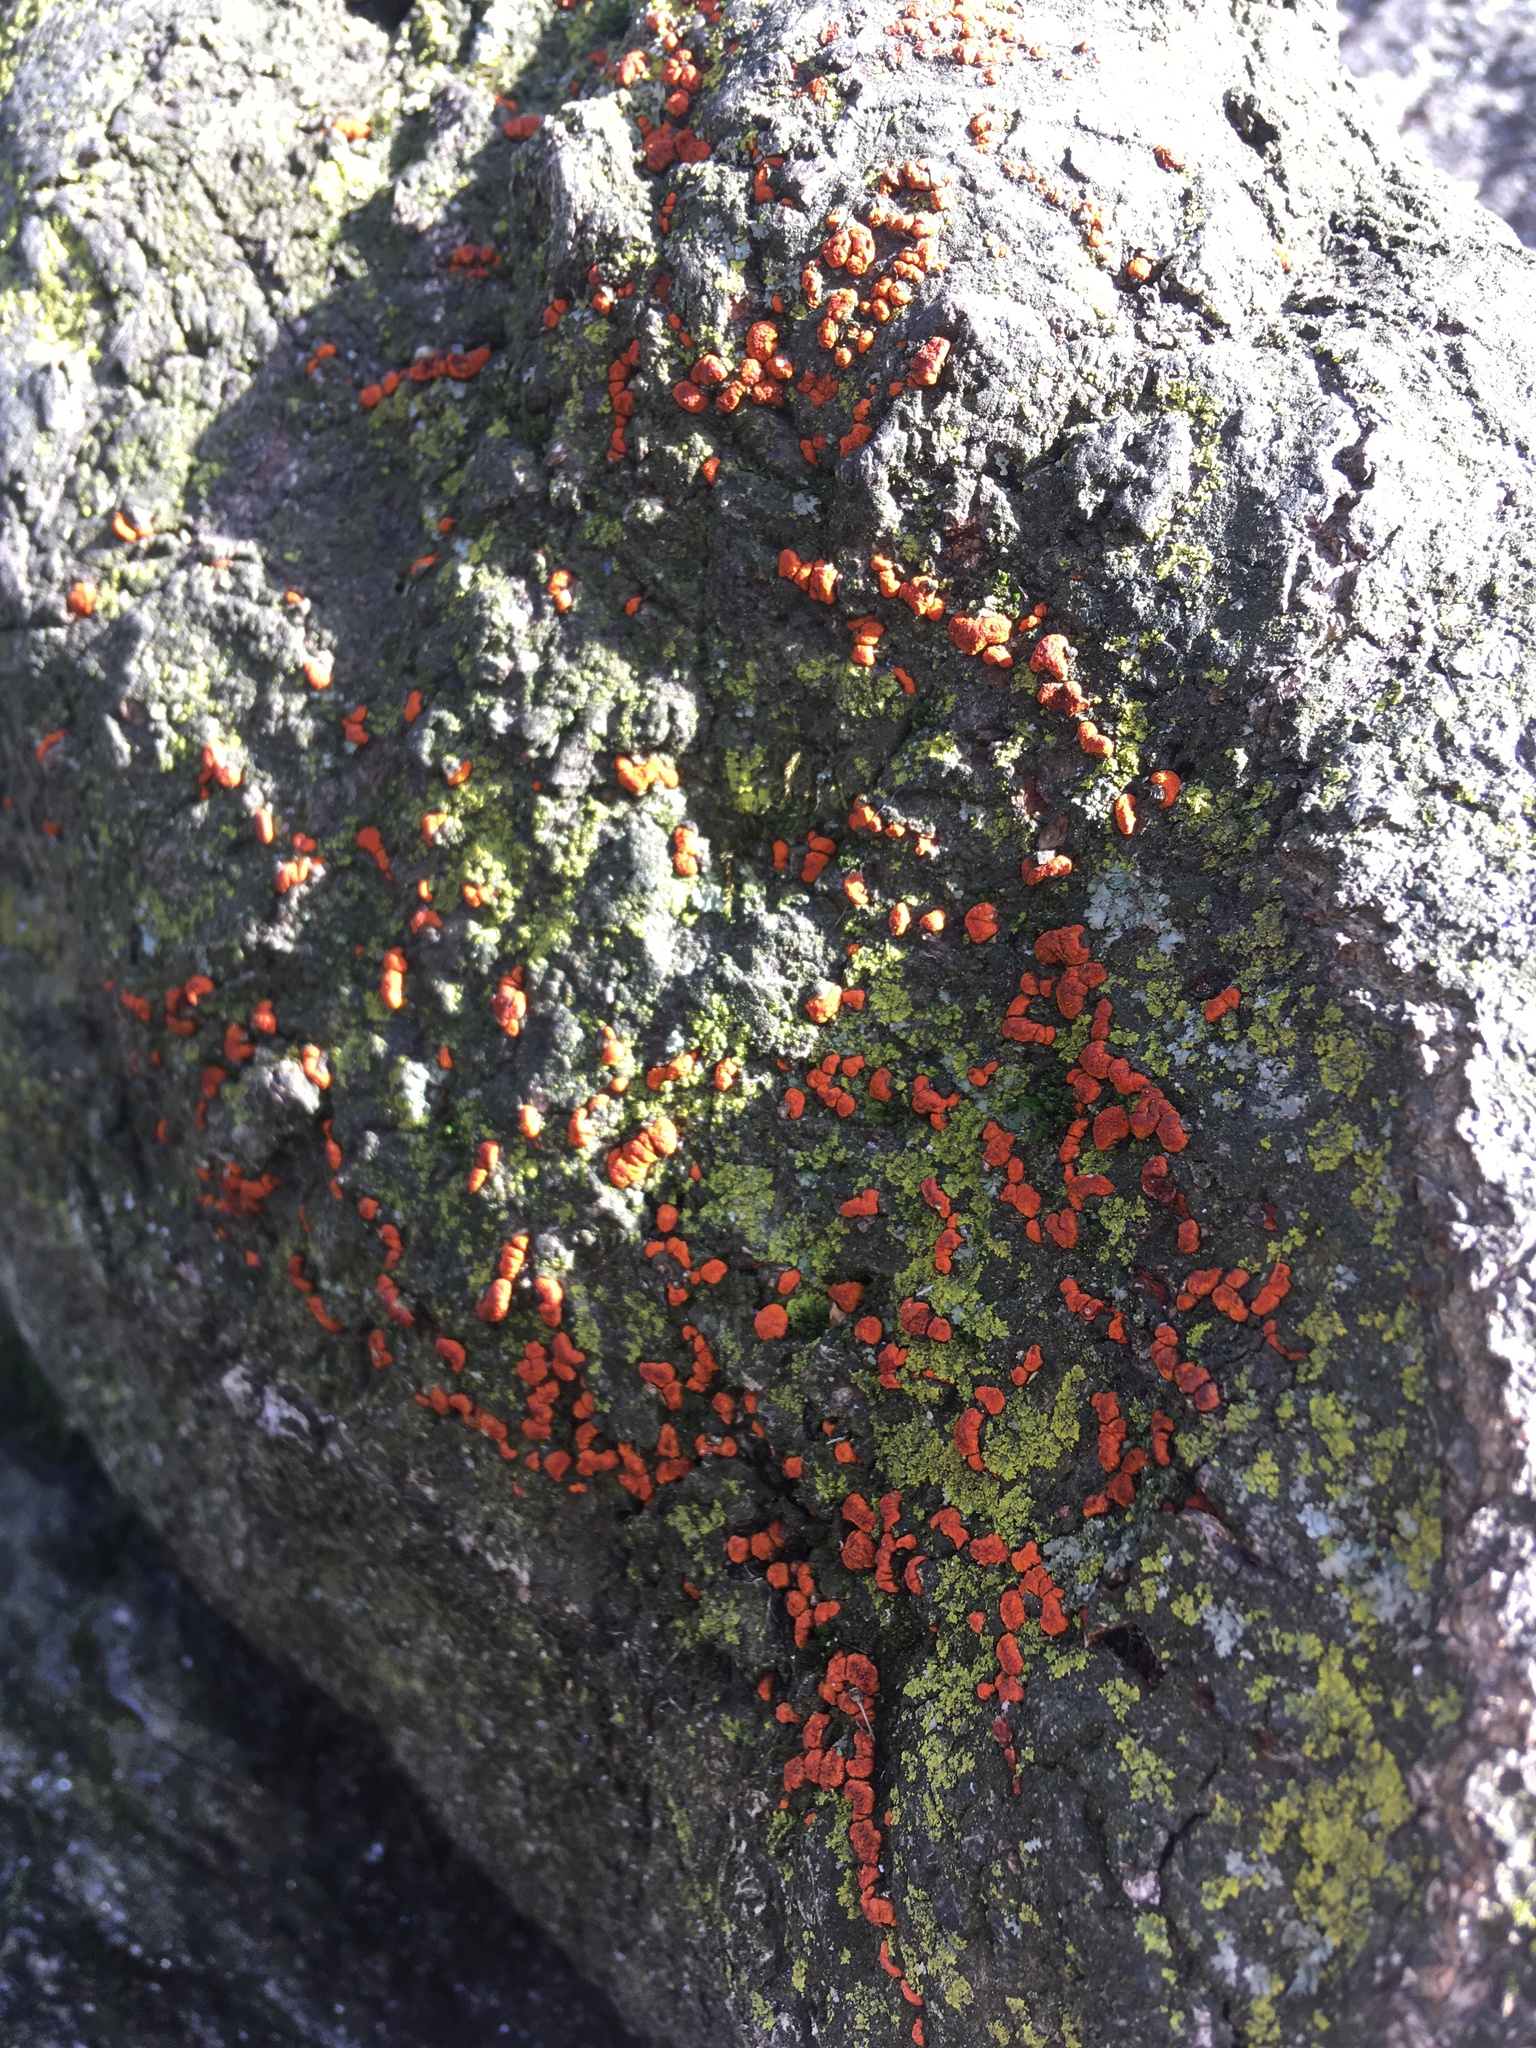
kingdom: Fungi
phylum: Ascomycota
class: Sordariomycetes
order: Diaporthales
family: Cryphonectriaceae
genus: Amphilogia
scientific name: Amphilogia gyrosa
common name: Orange hobnail canker
